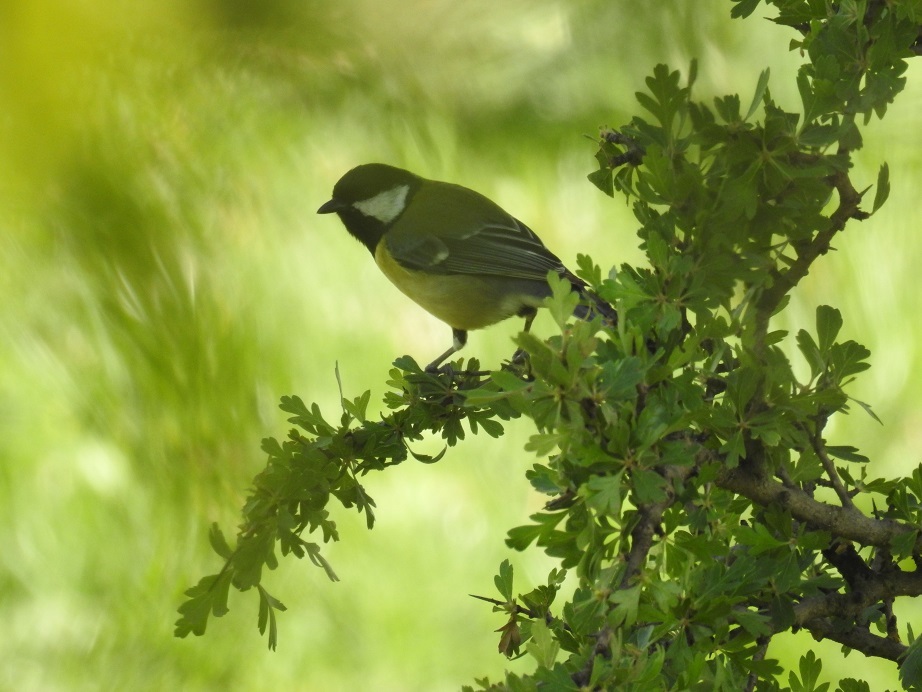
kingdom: Animalia
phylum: Chordata
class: Aves
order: Passeriformes
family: Paridae
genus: Parus
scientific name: Parus major
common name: Great tit
